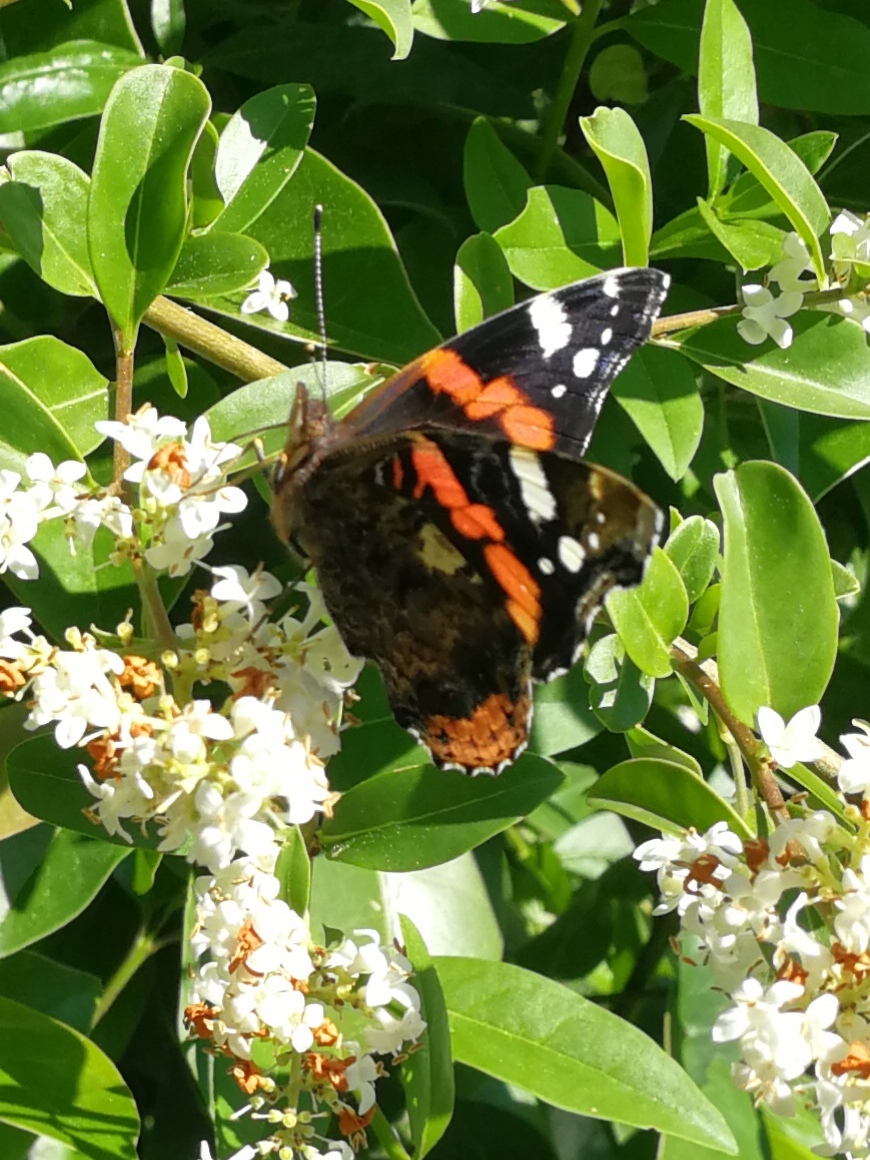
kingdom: Animalia
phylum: Arthropoda
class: Insecta
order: Lepidoptera
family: Nymphalidae
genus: Vanessa
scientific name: Vanessa atalanta
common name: Red admiral
